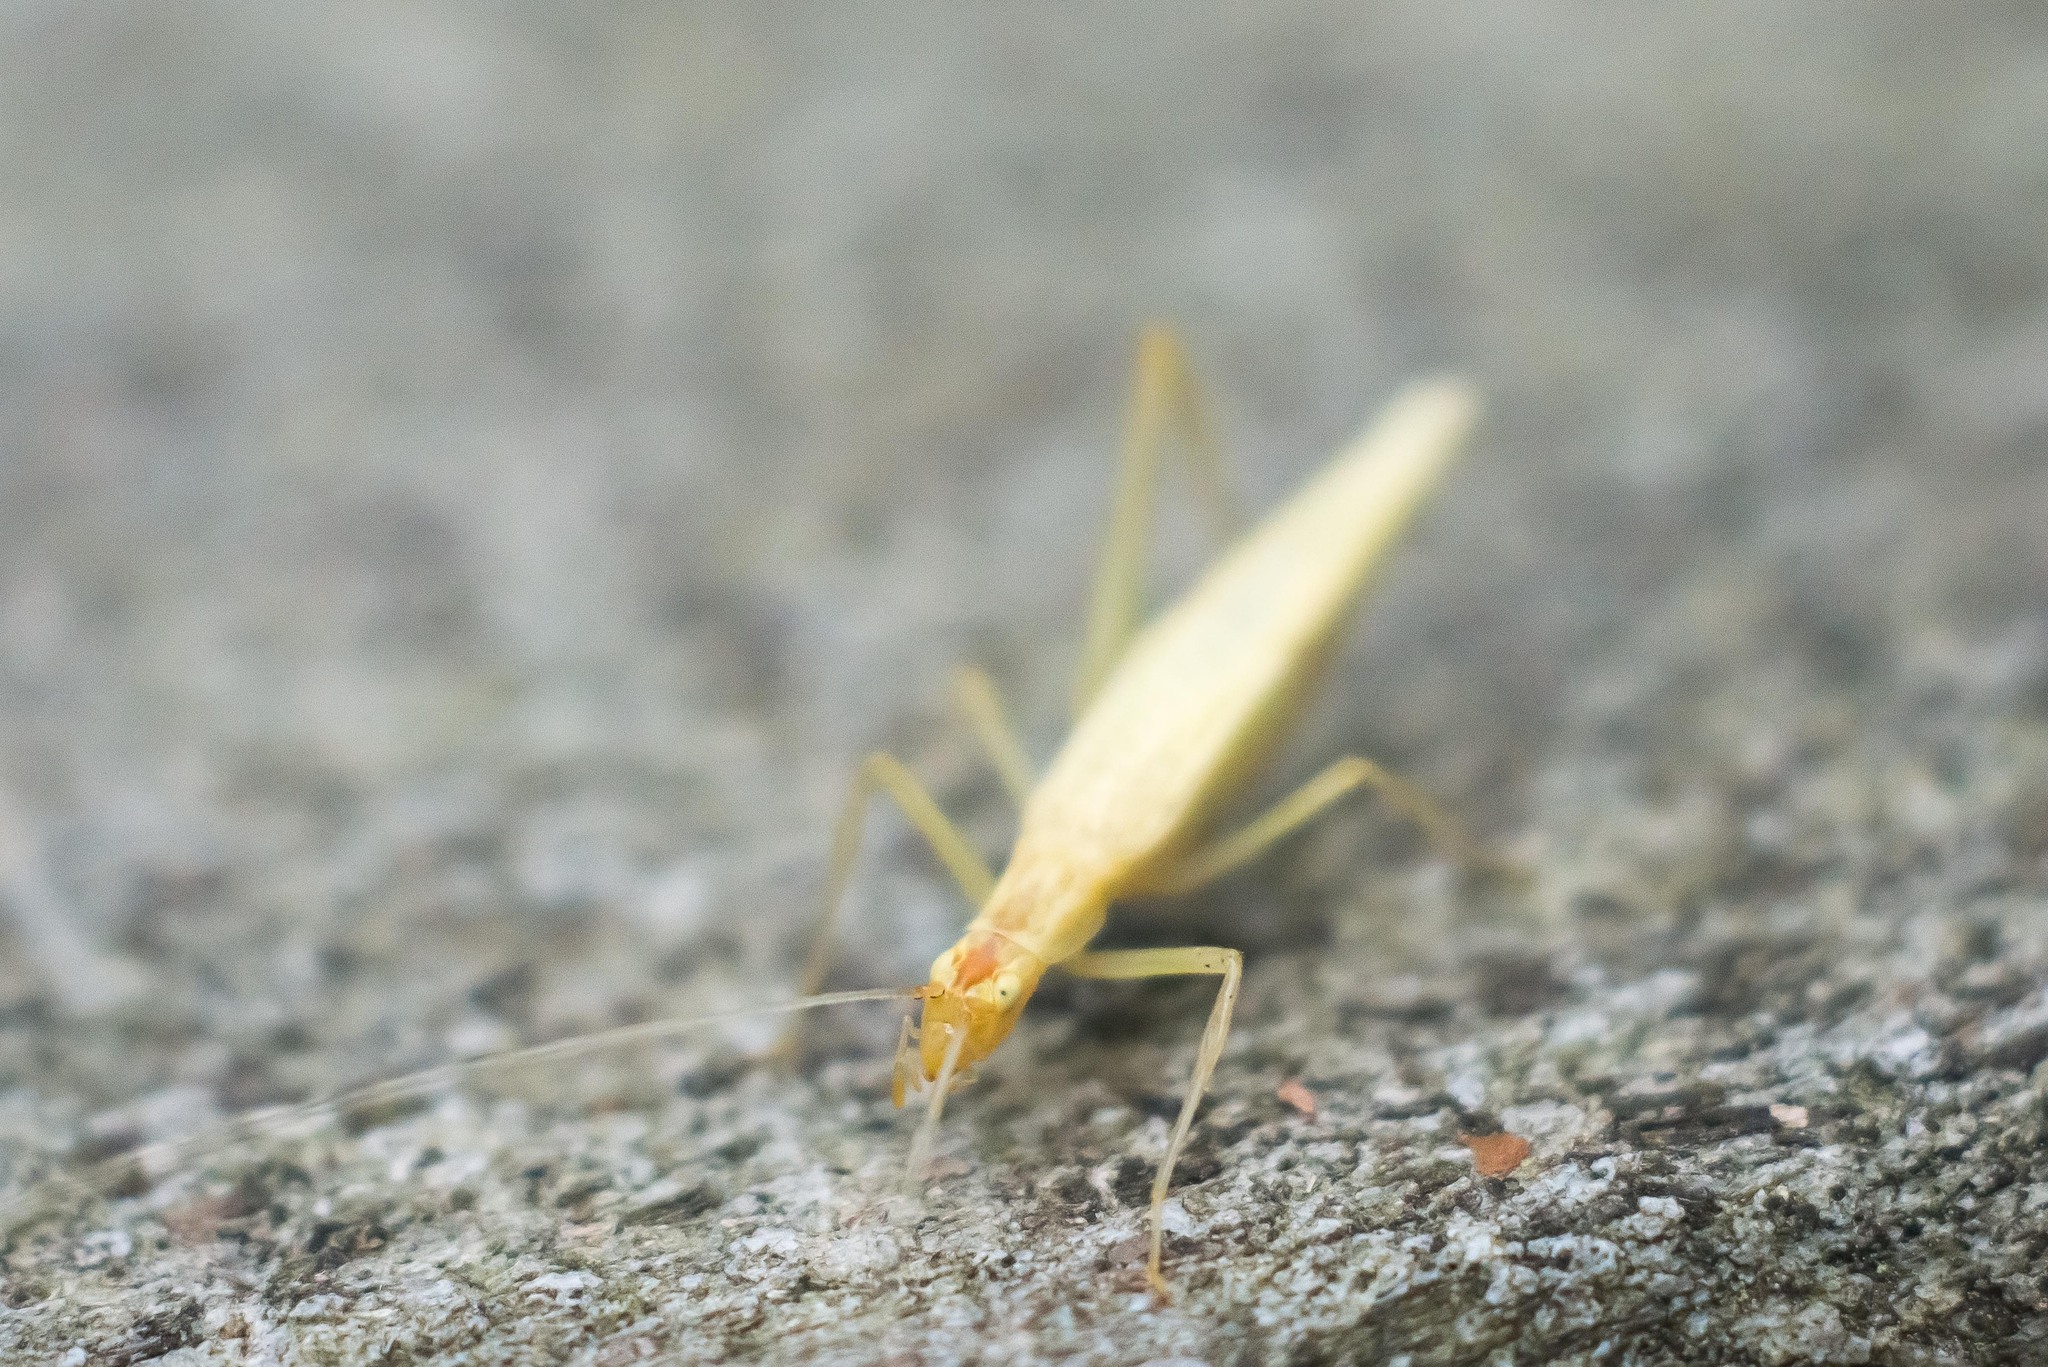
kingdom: Animalia
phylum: Arthropoda
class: Insecta
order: Orthoptera
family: Gryllidae
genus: Oecanthus
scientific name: Oecanthus niveus
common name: Narrow-winged tree cricket
